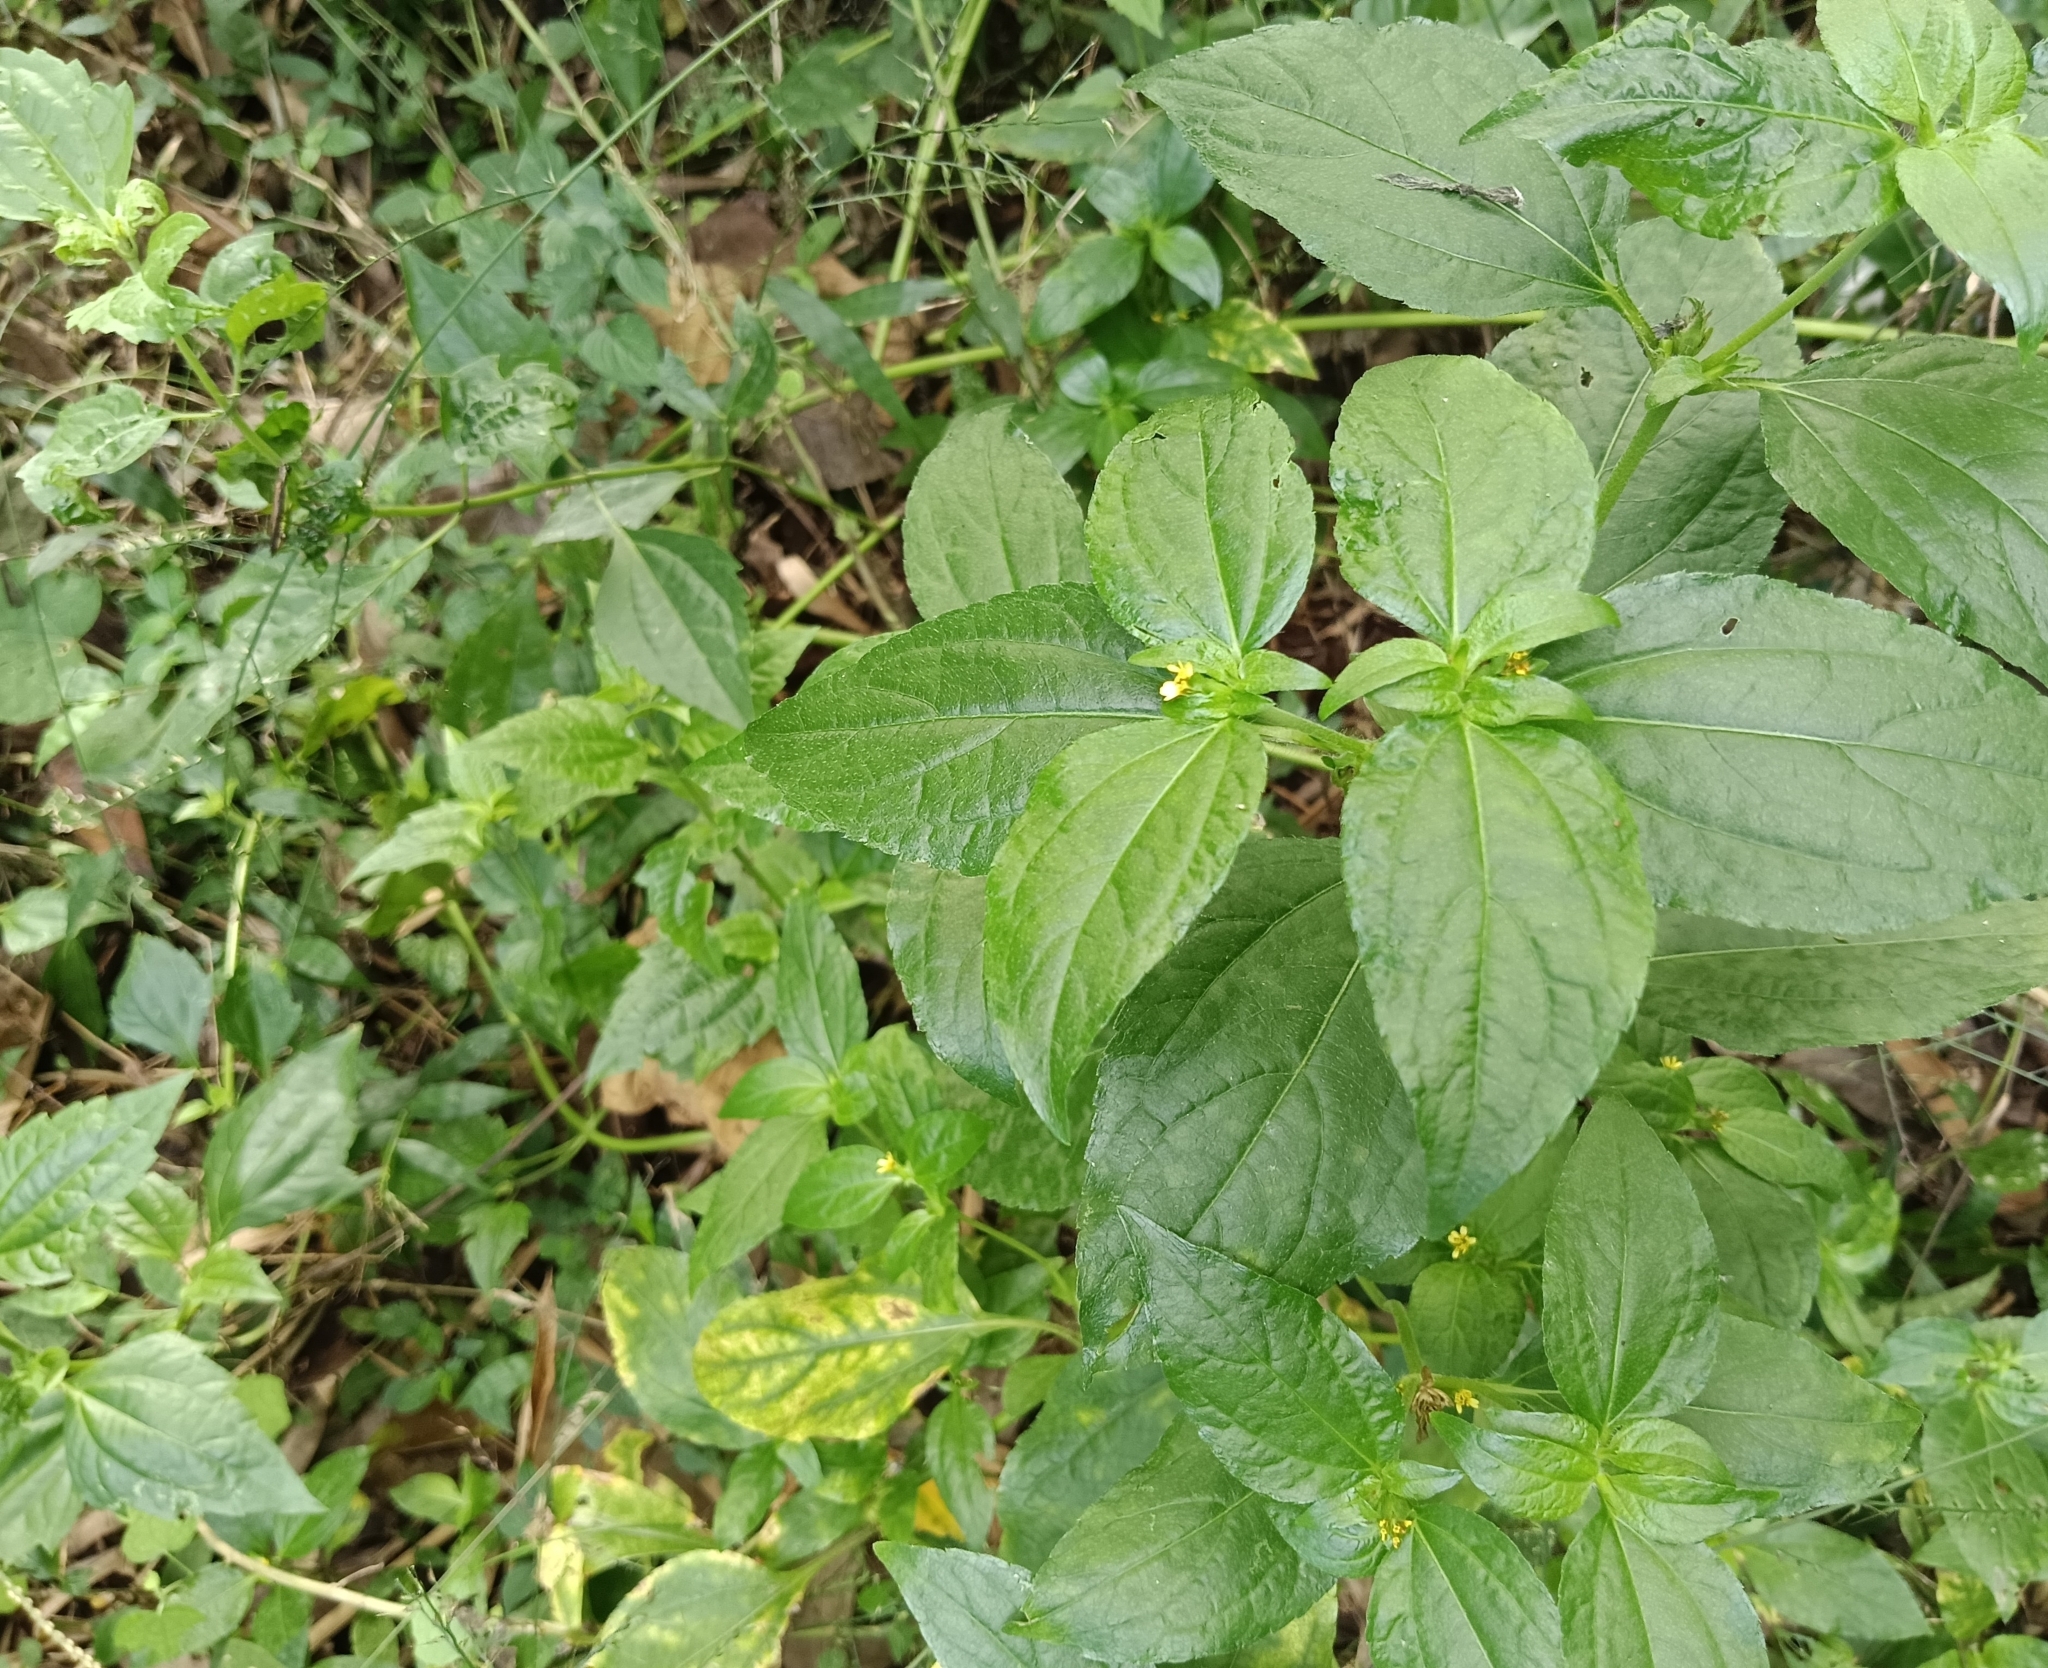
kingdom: Plantae
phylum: Tracheophyta
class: Magnoliopsida
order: Asterales
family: Asteraceae
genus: Synedrella
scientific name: Synedrella nodiflora
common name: Nodeweed
